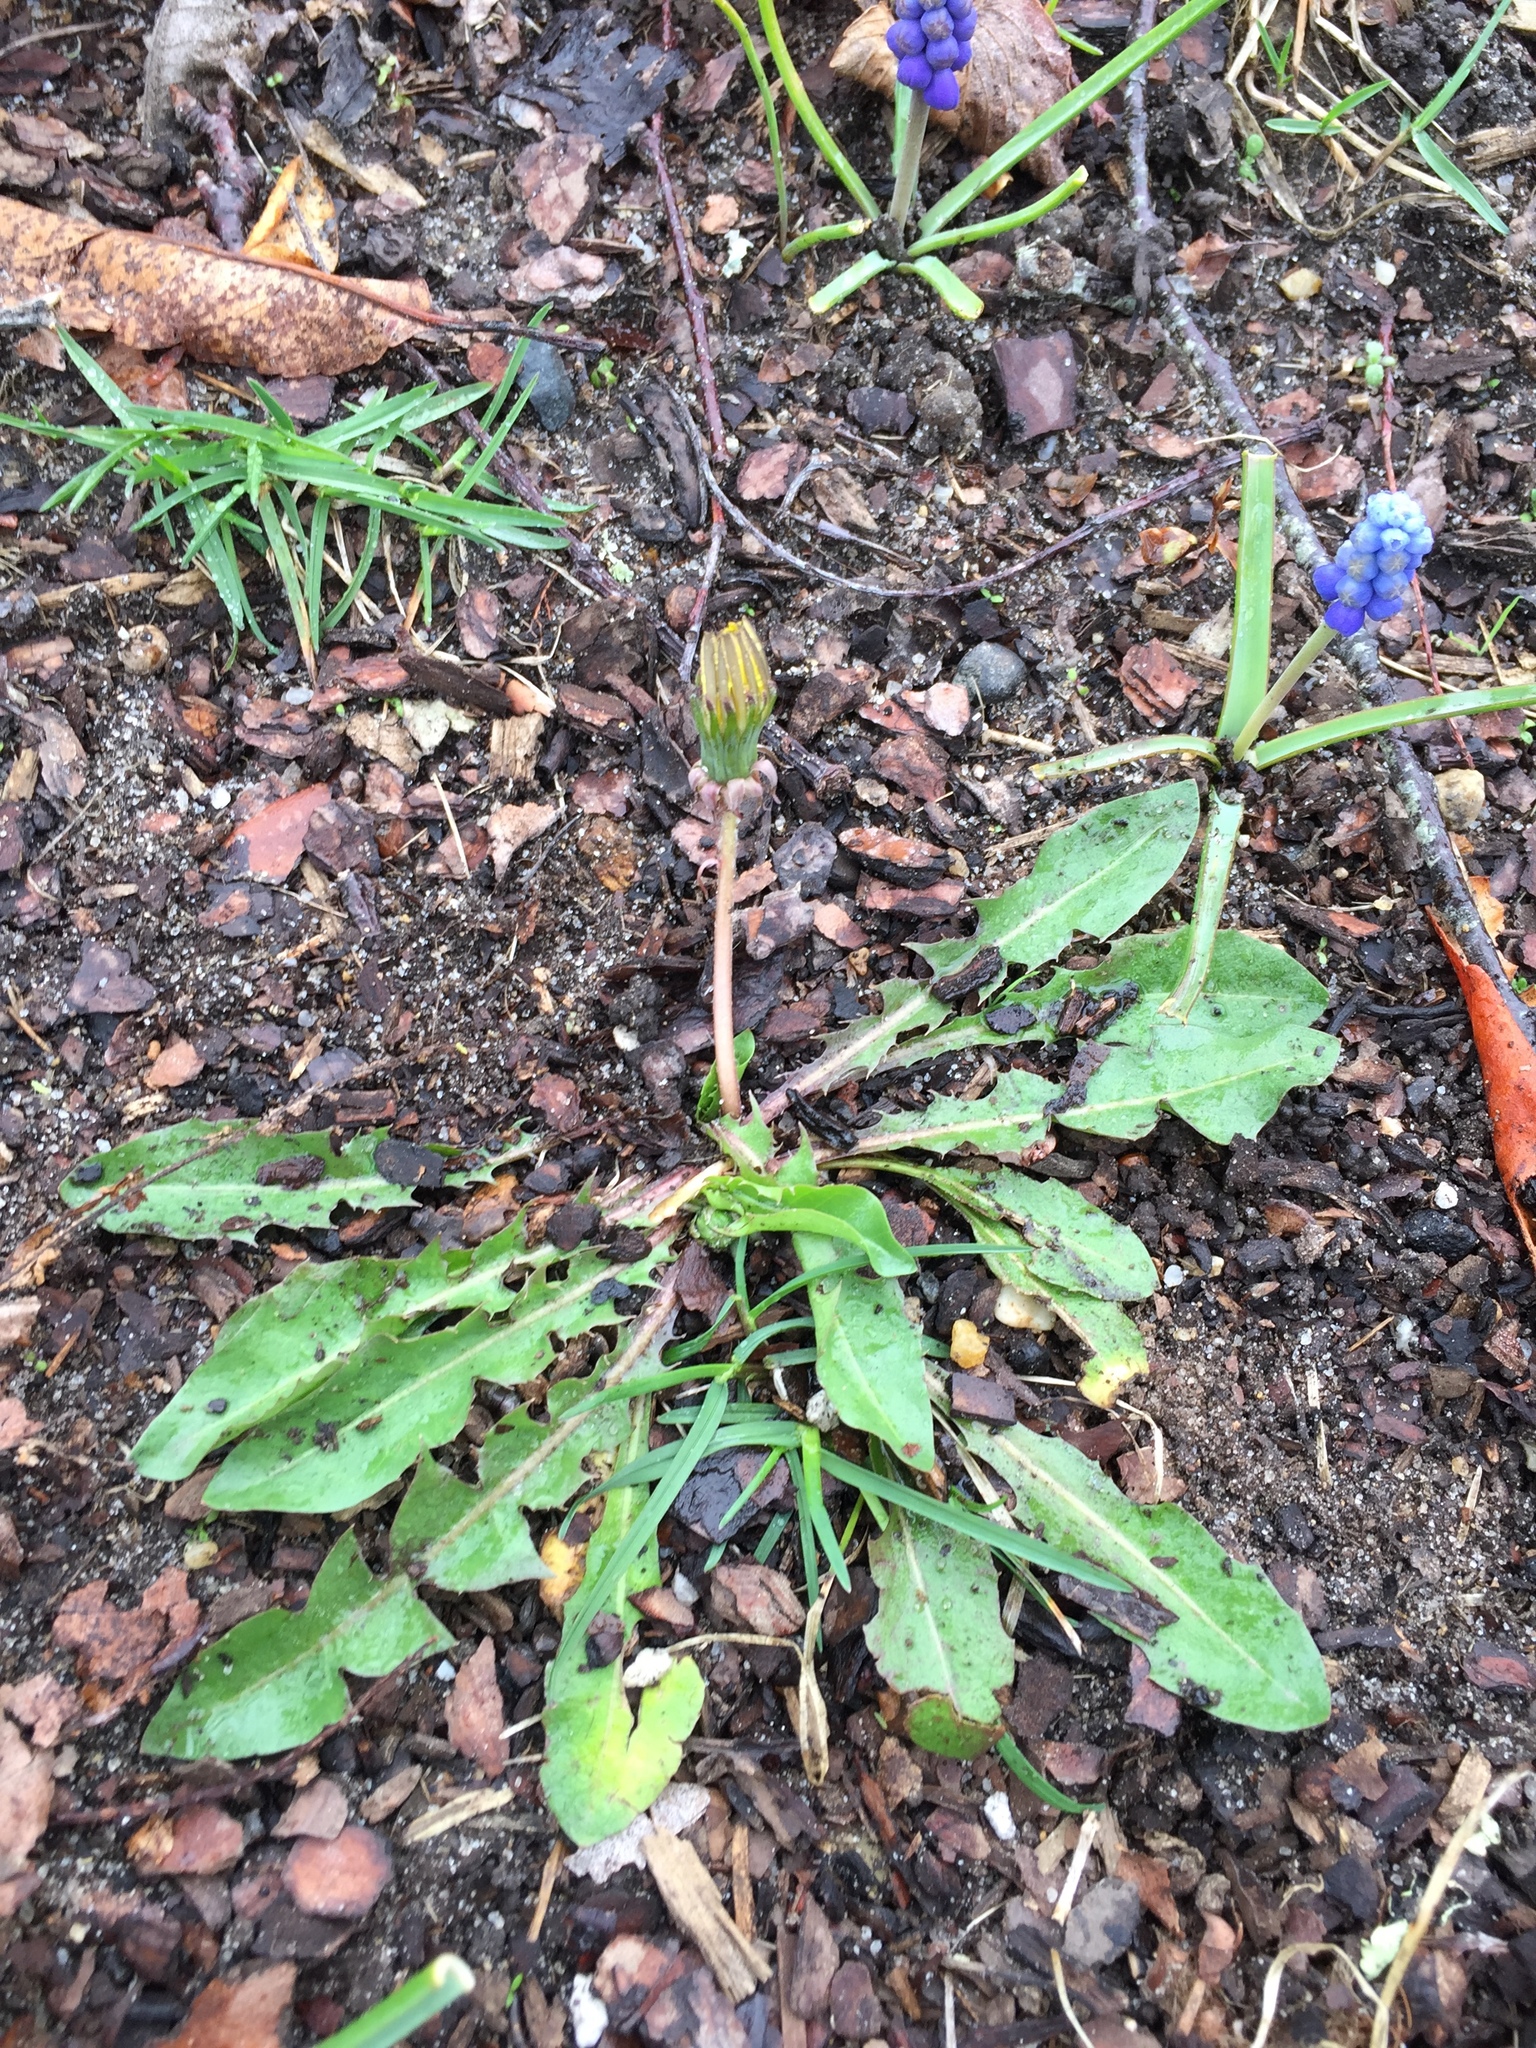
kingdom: Plantae
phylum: Tracheophyta
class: Magnoliopsida
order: Asterales
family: Asteraceae
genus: Taraxacum
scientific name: Taraxacum officinale
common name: Common dandelion
